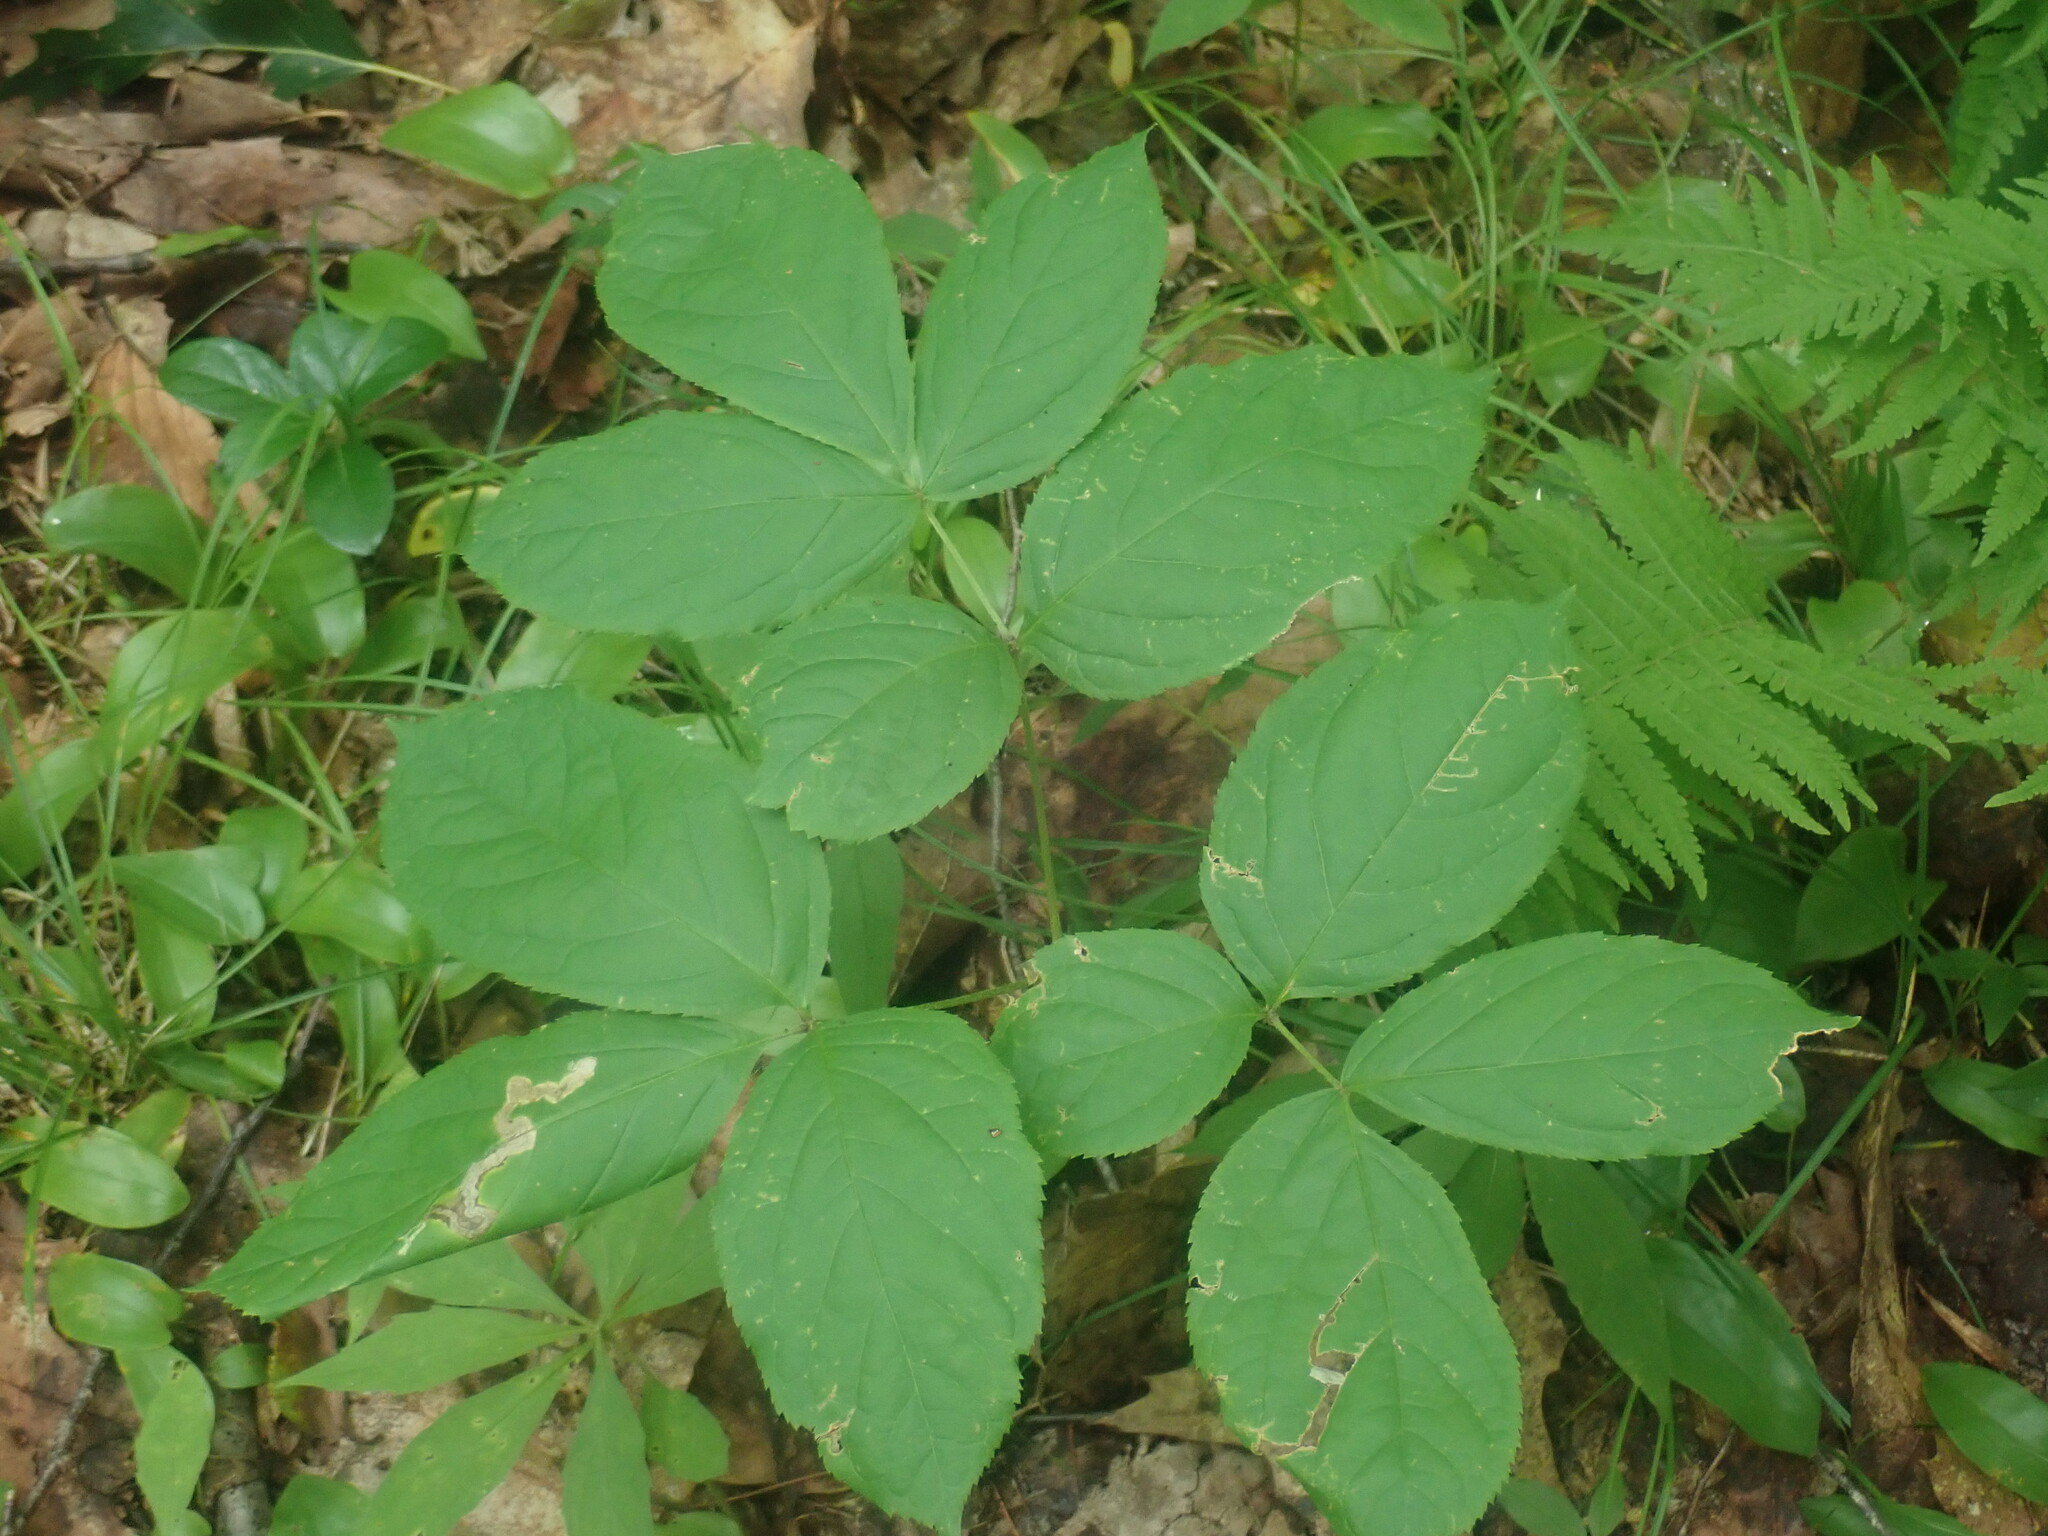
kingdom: Plantae
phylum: Tracheophyta
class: Magnoliopsida
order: Apiales
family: Araliaceae
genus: Aralia
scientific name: Aralia nudicaulis
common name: Wild sarsaparilla
